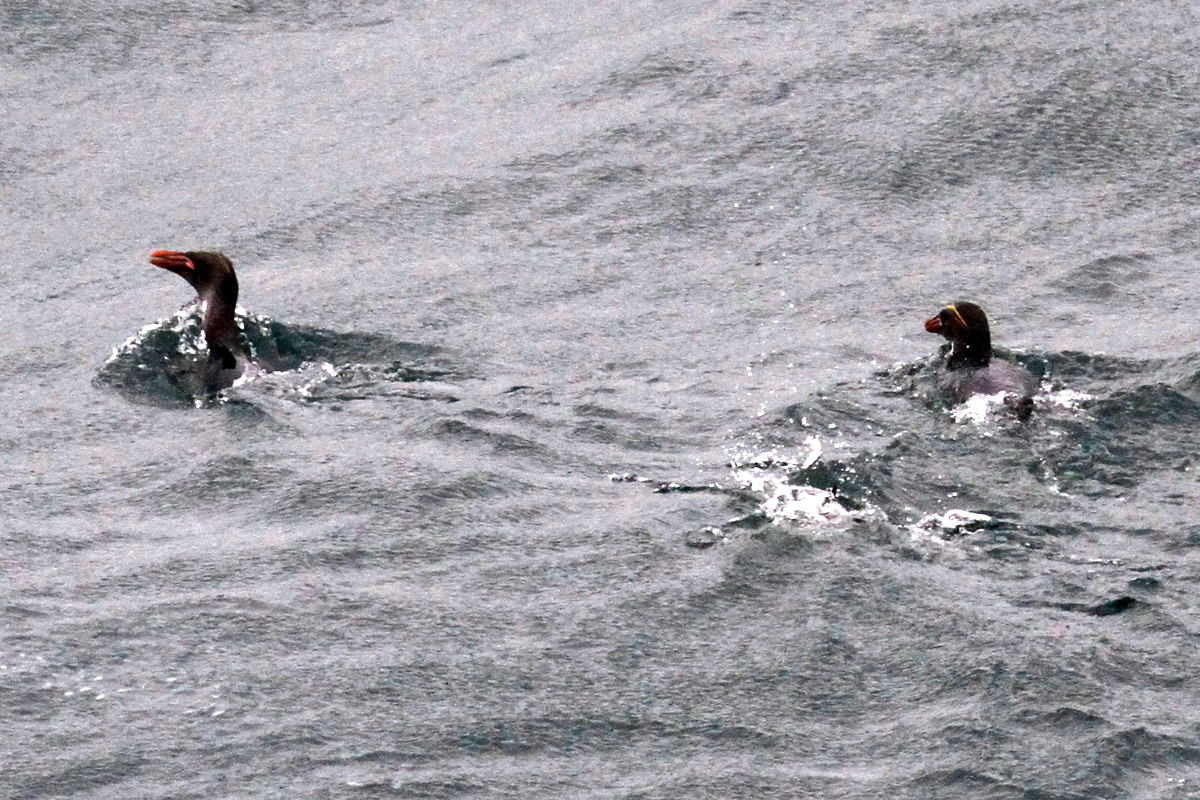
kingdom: Animalia
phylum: Chordata
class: Aves
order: Sphenisciformes
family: Spheniscidae
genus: Eudyptes
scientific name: Eudyptes chrysolophus
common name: Macaroni penguin
